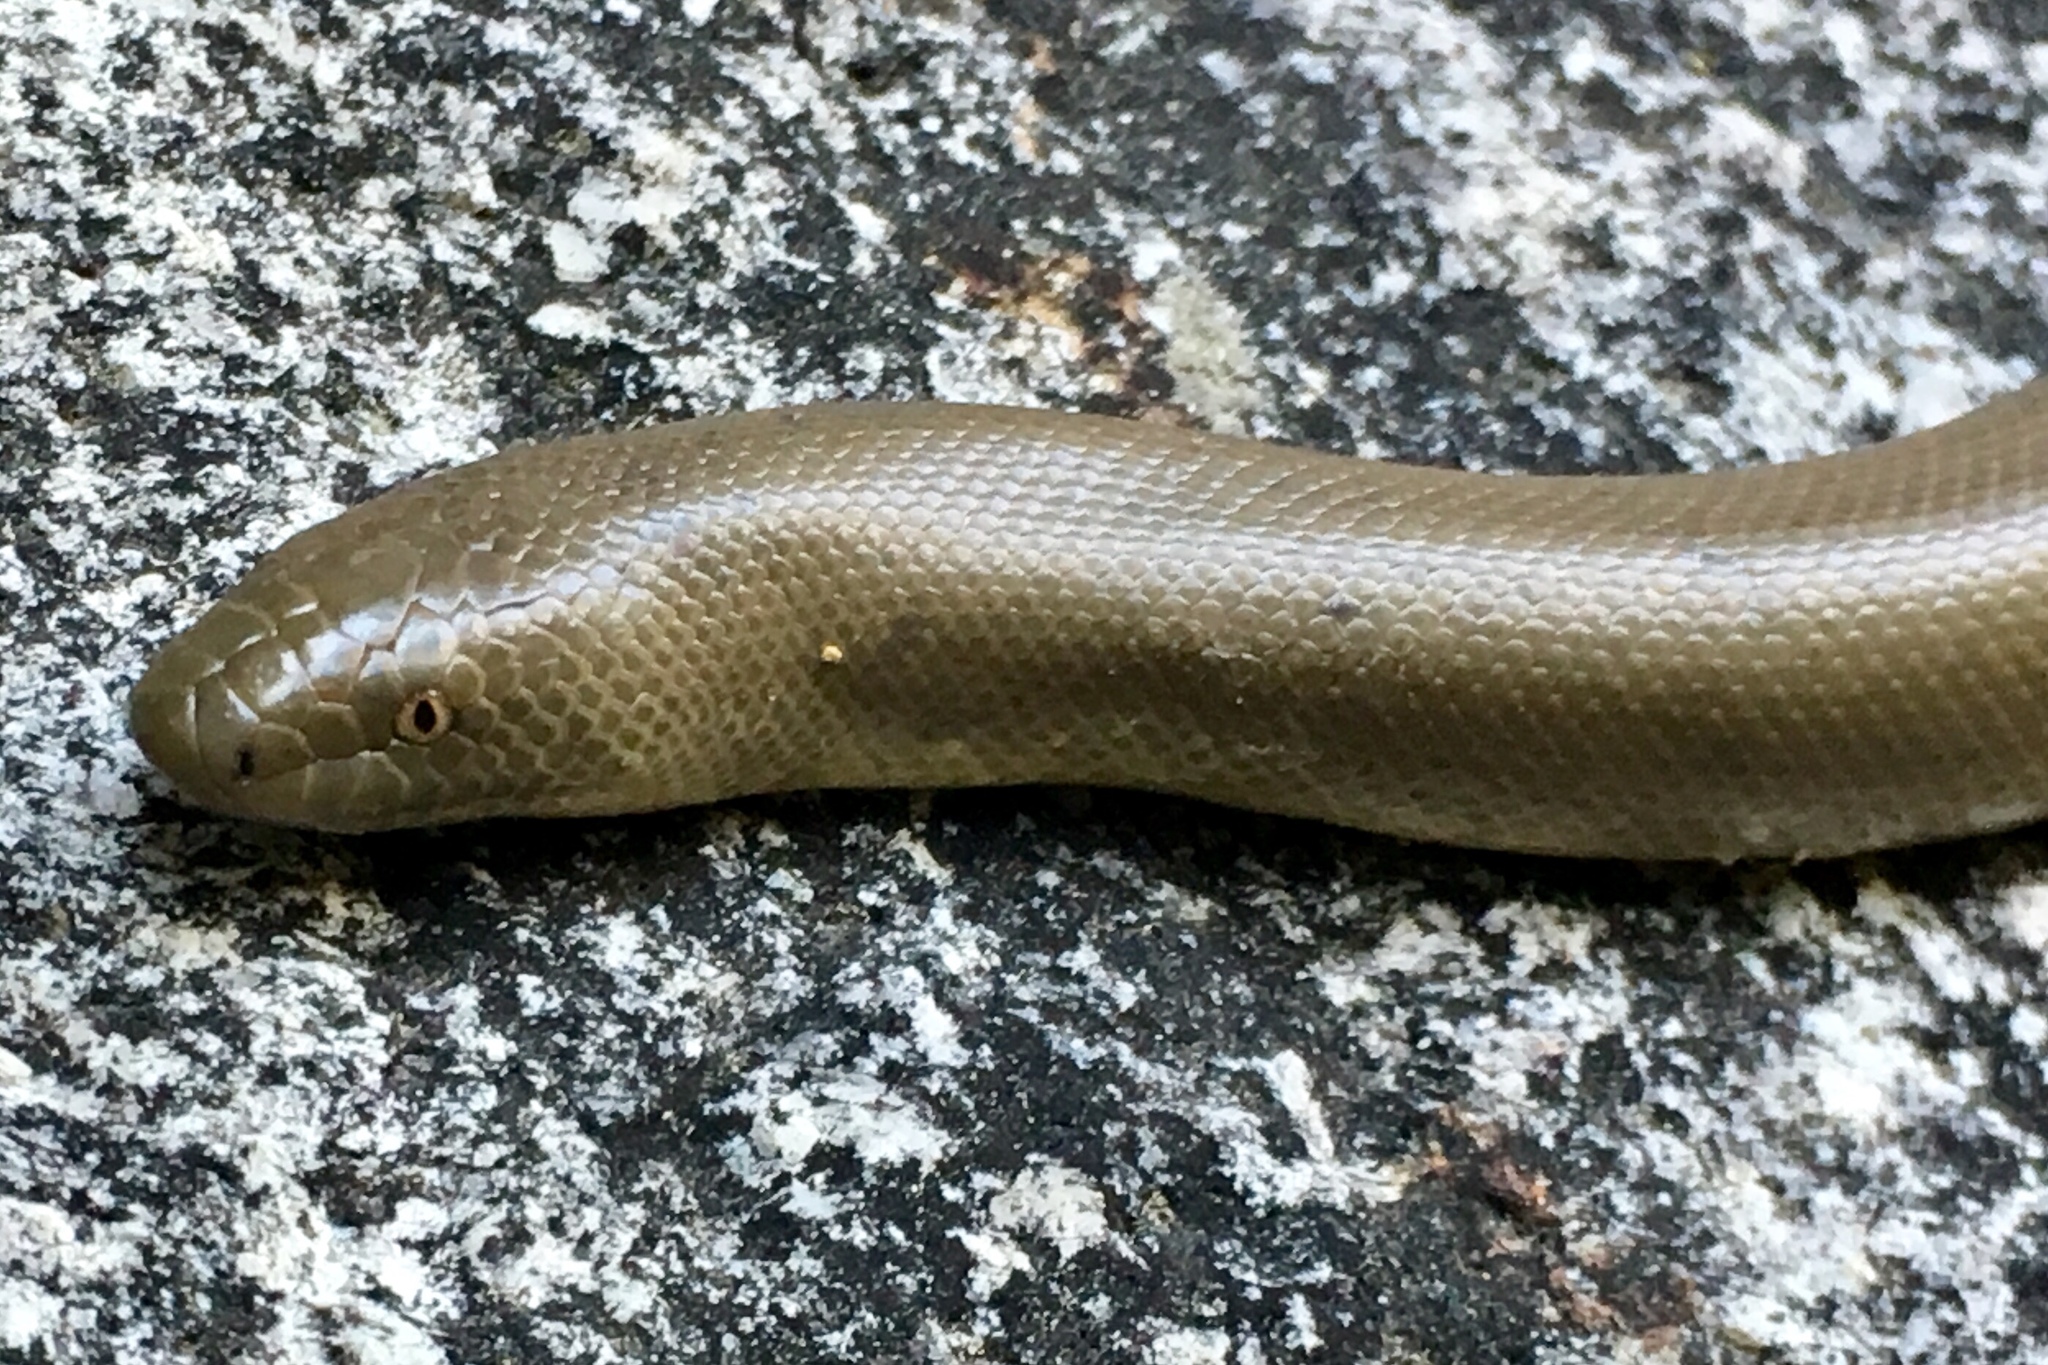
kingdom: Animalia
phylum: Chordata
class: Squamata
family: Boidae
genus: Charina
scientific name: Charina bottae
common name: Northern rubber boa
